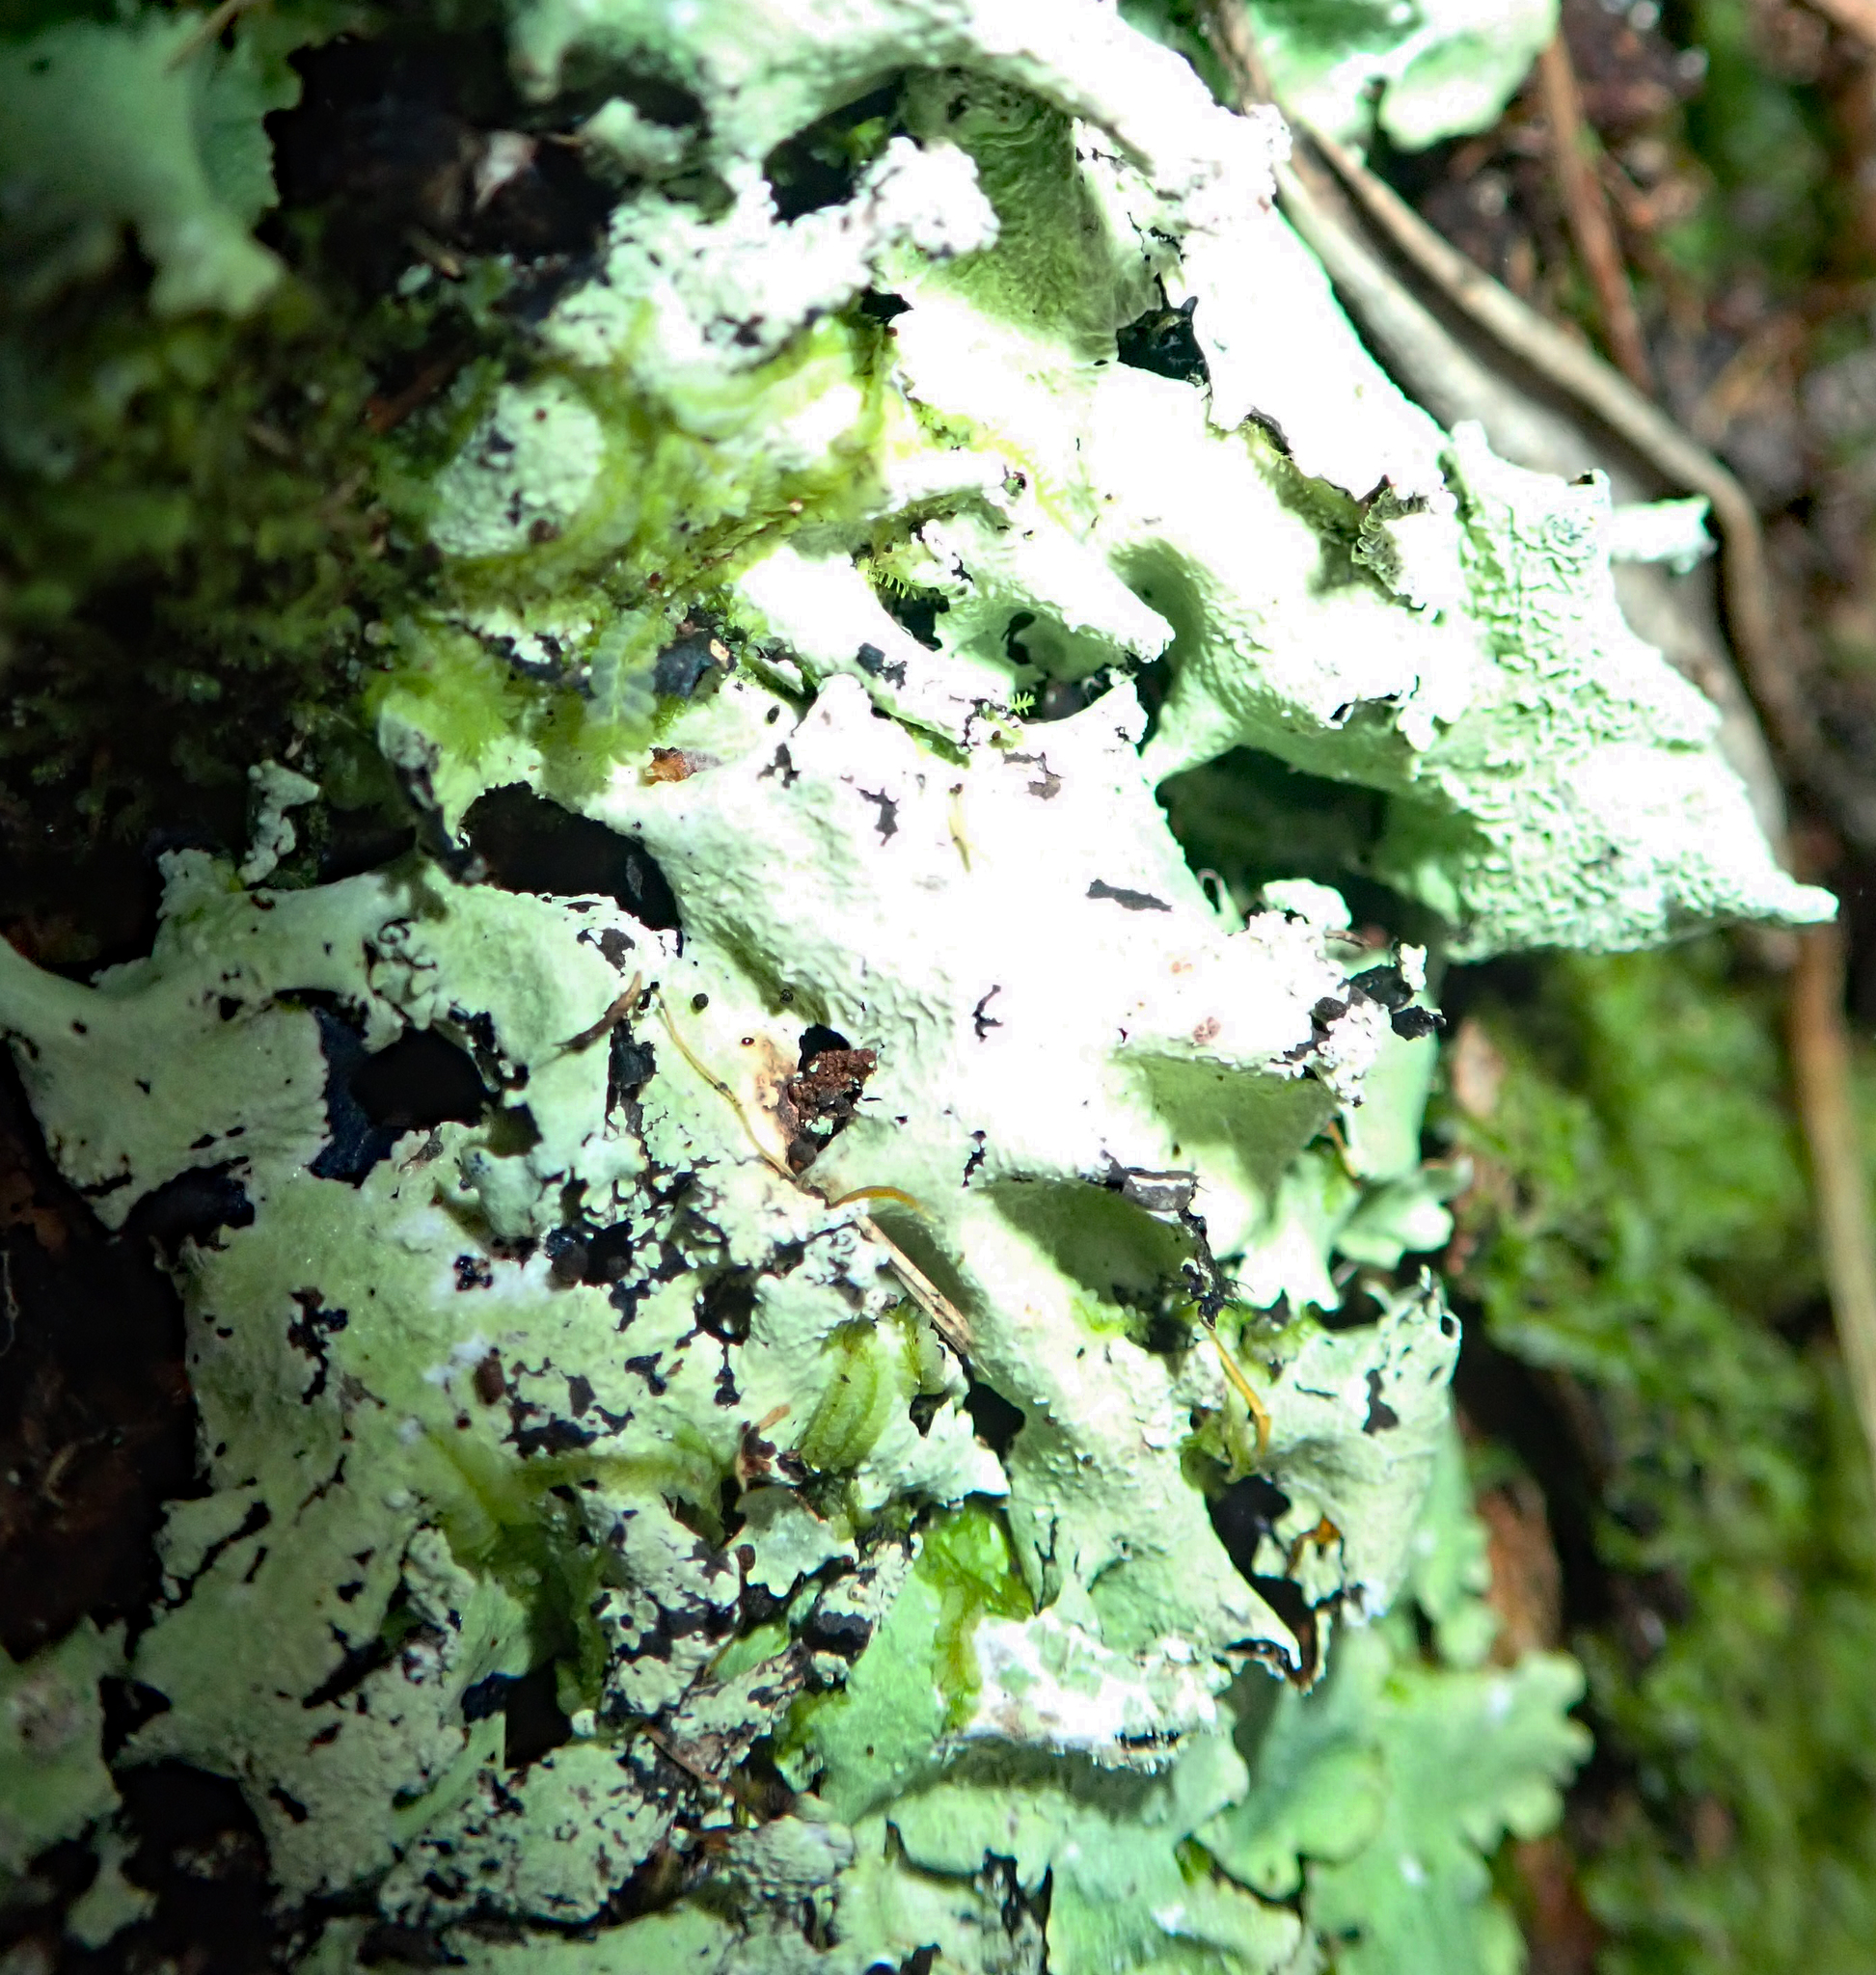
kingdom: Fungi
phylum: Ascomycota
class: Lecanoromycetes
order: Lecanorales
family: Parmeliaceae
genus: Parmotrema
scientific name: Parmotrema austrocetratum
